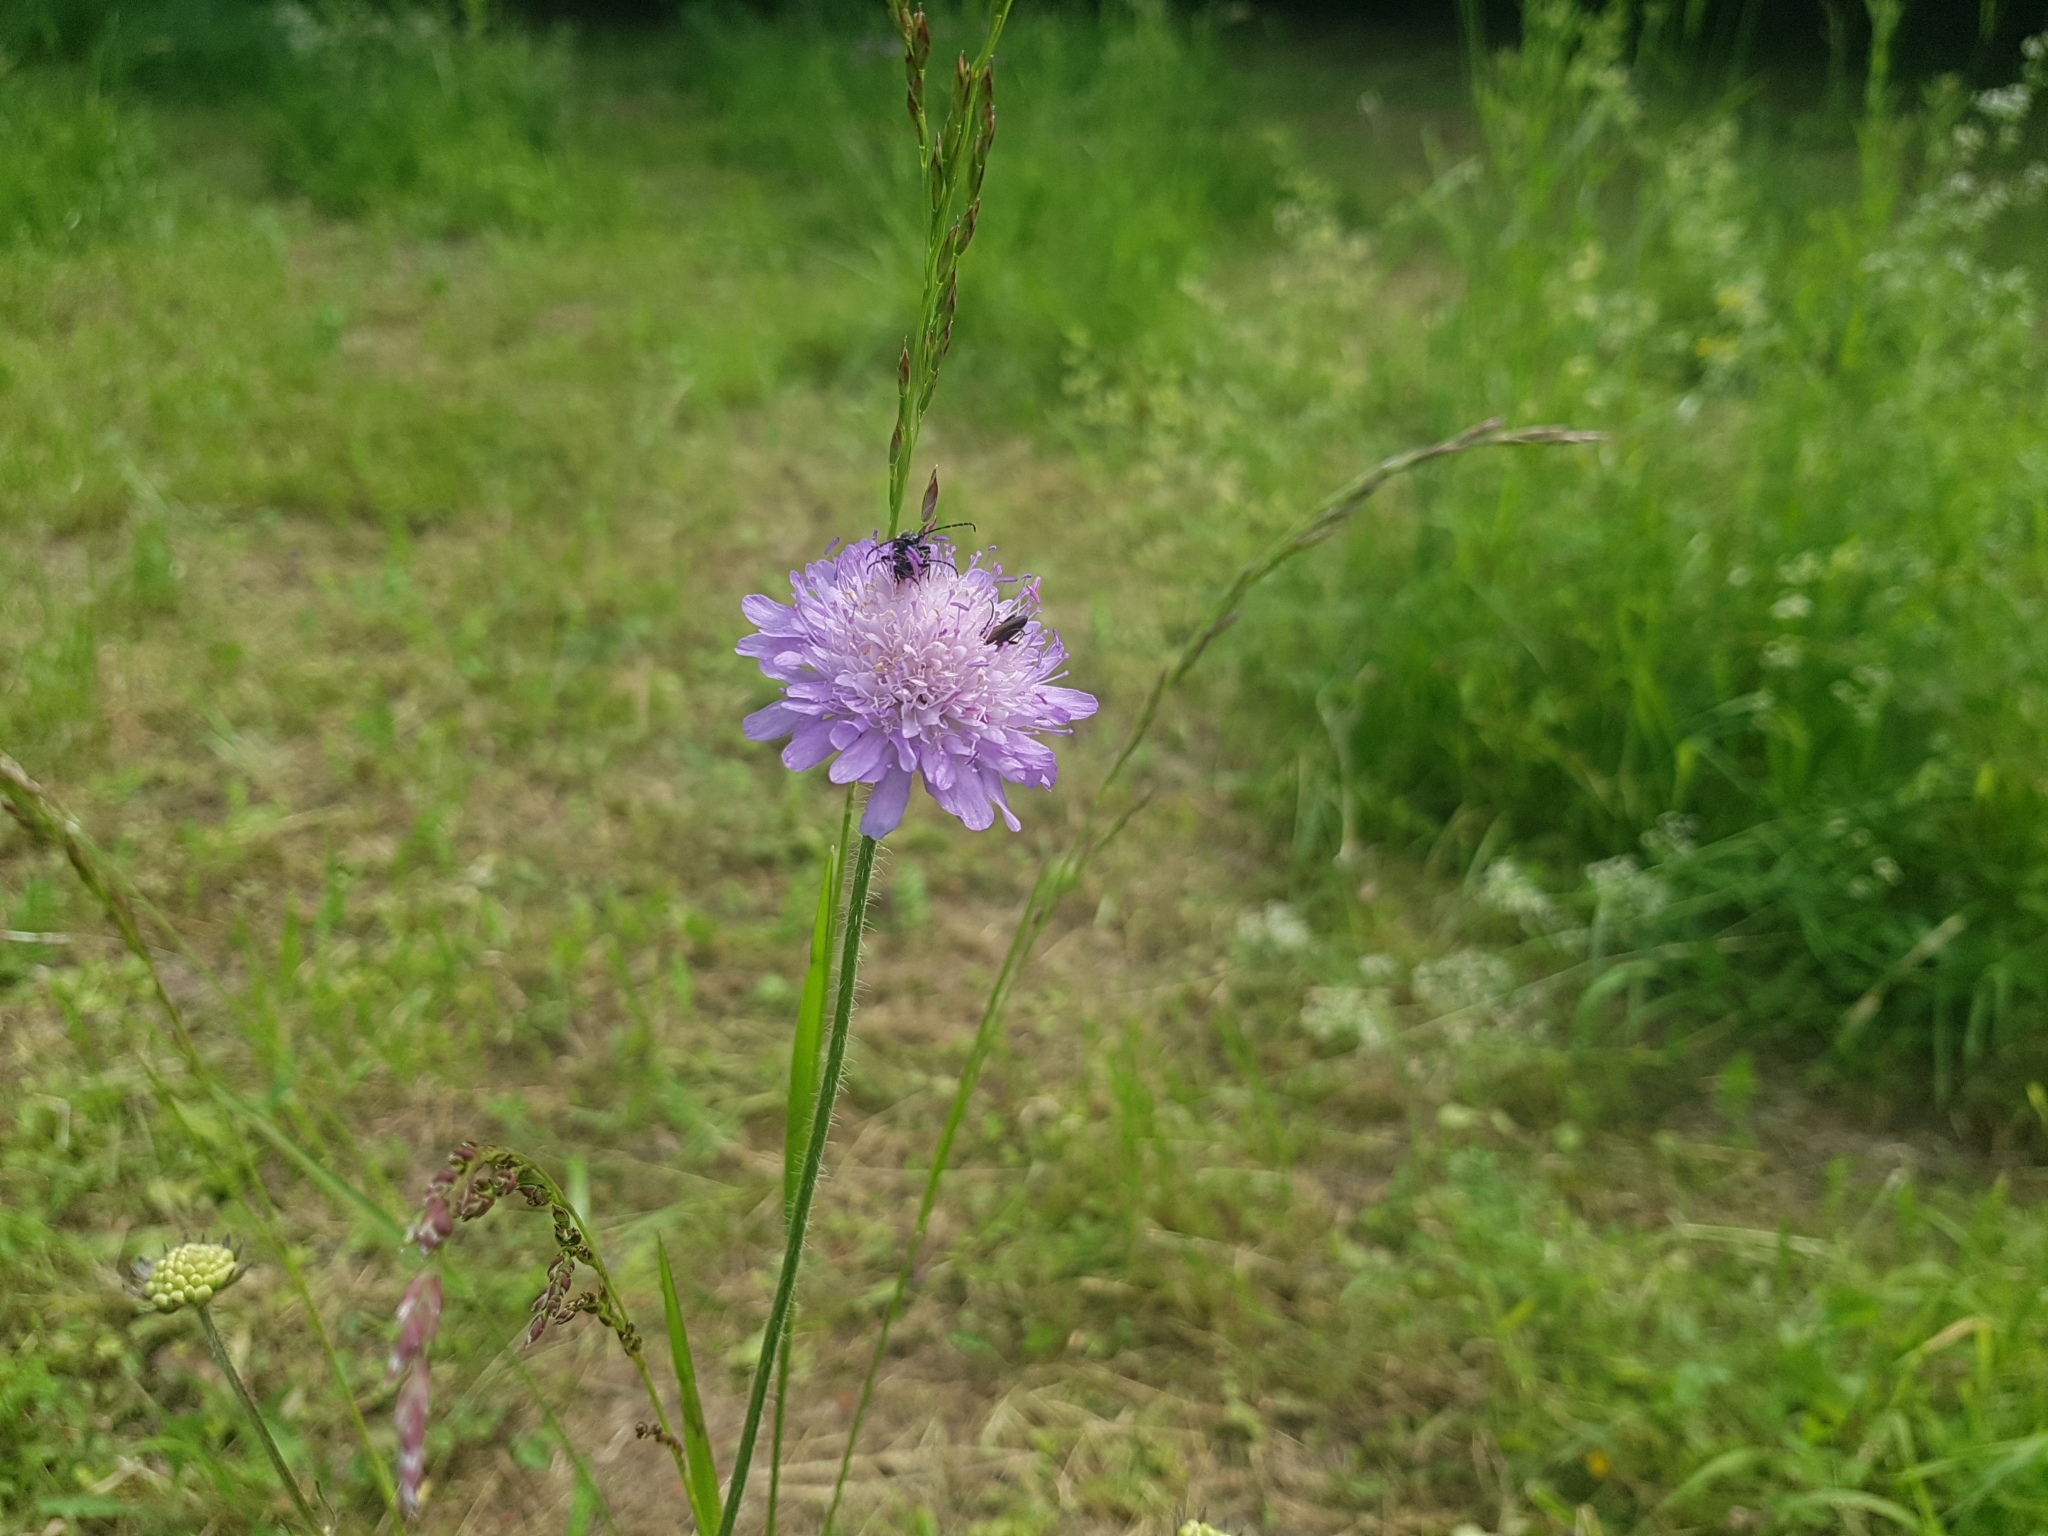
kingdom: Plantae
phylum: Tracheophyta
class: Magnoliopsida
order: Dipsacales
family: Caprifoliaceae
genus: Knautia
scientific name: Knautia arvensis
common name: Field scabiosa
